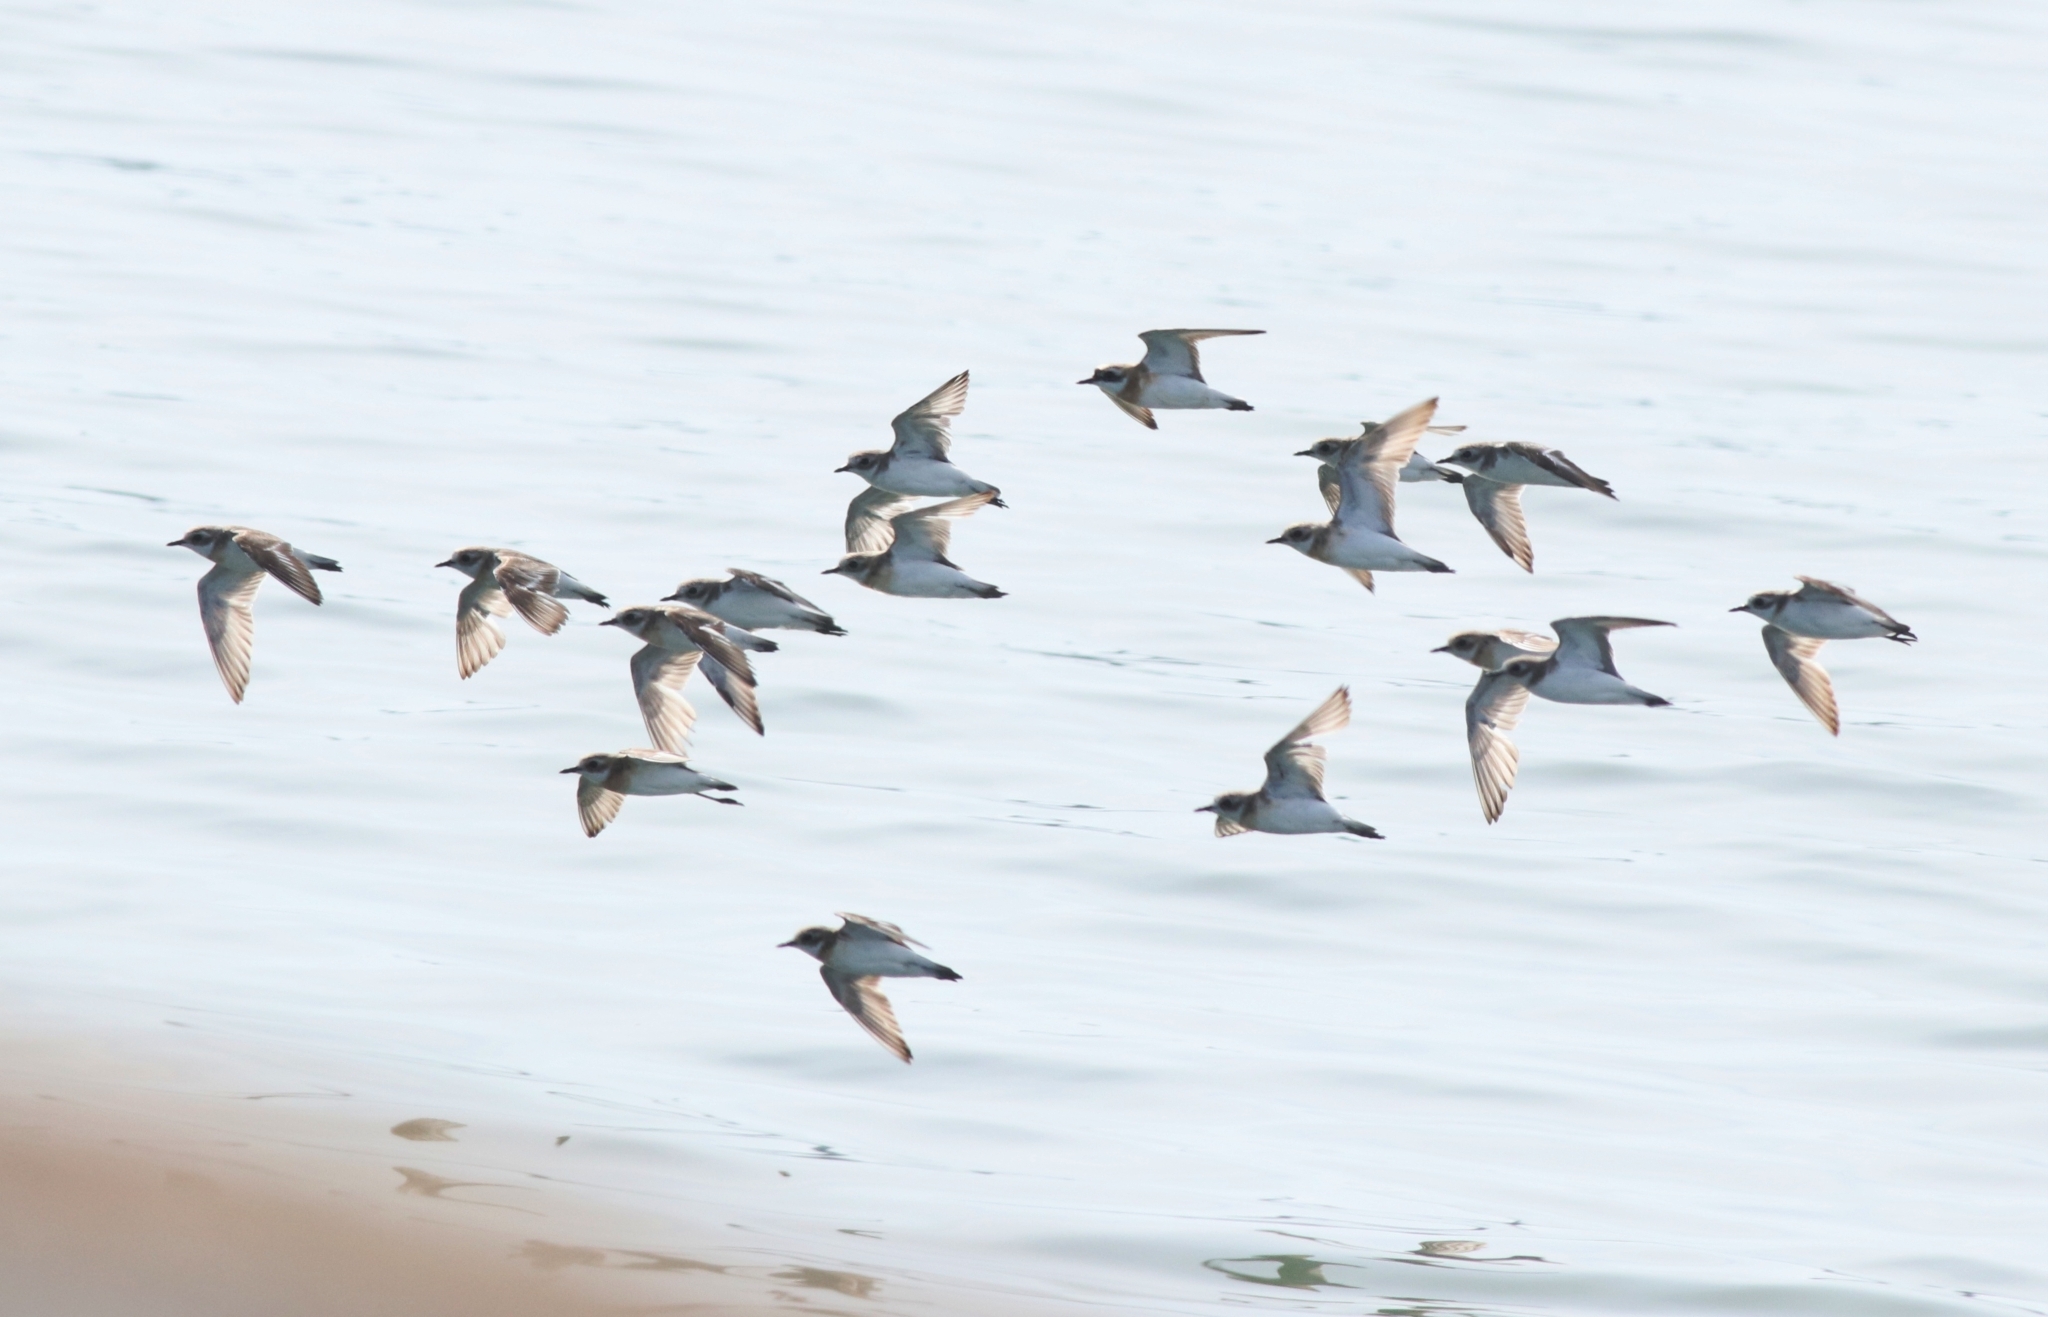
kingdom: Animalia
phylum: Chordata
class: Aves
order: Charadriiformes
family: Charadriidae
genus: Anarhynchus
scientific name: Anarhynchus
